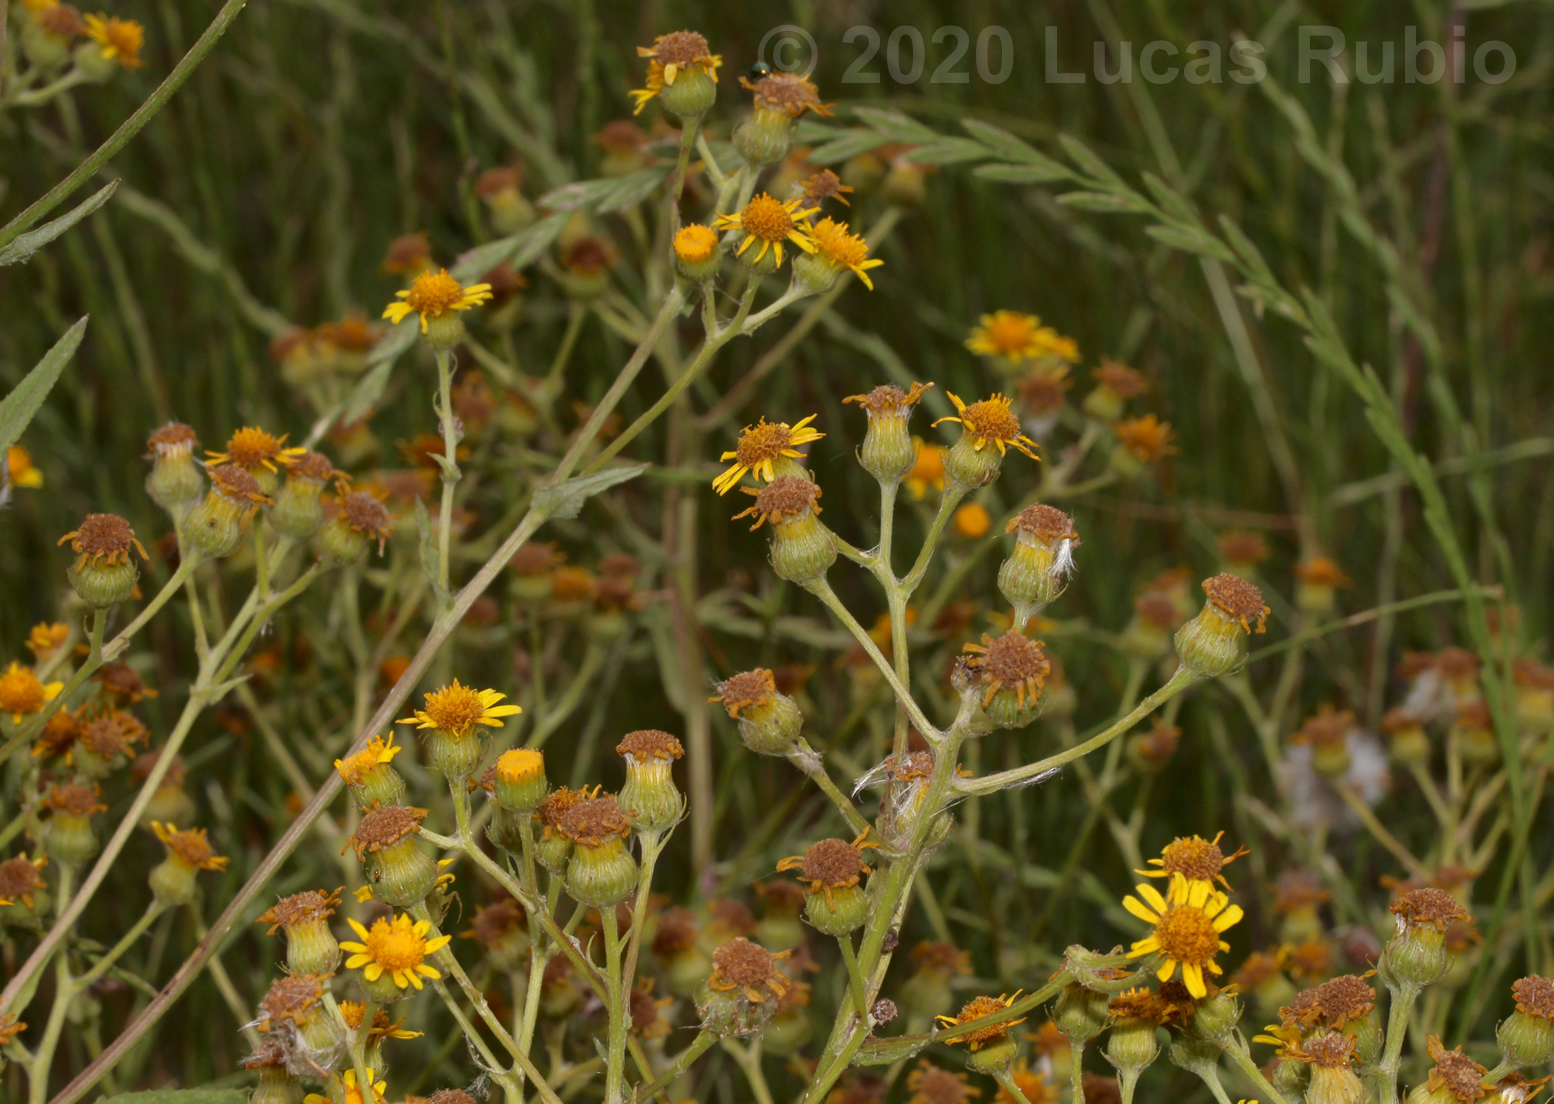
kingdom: Plantae
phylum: Tracheophyta
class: Magnoliopsida
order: Asterales
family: Asteraceae
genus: Senecio
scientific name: Senecio pterophorus
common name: Shoddy ragwort
